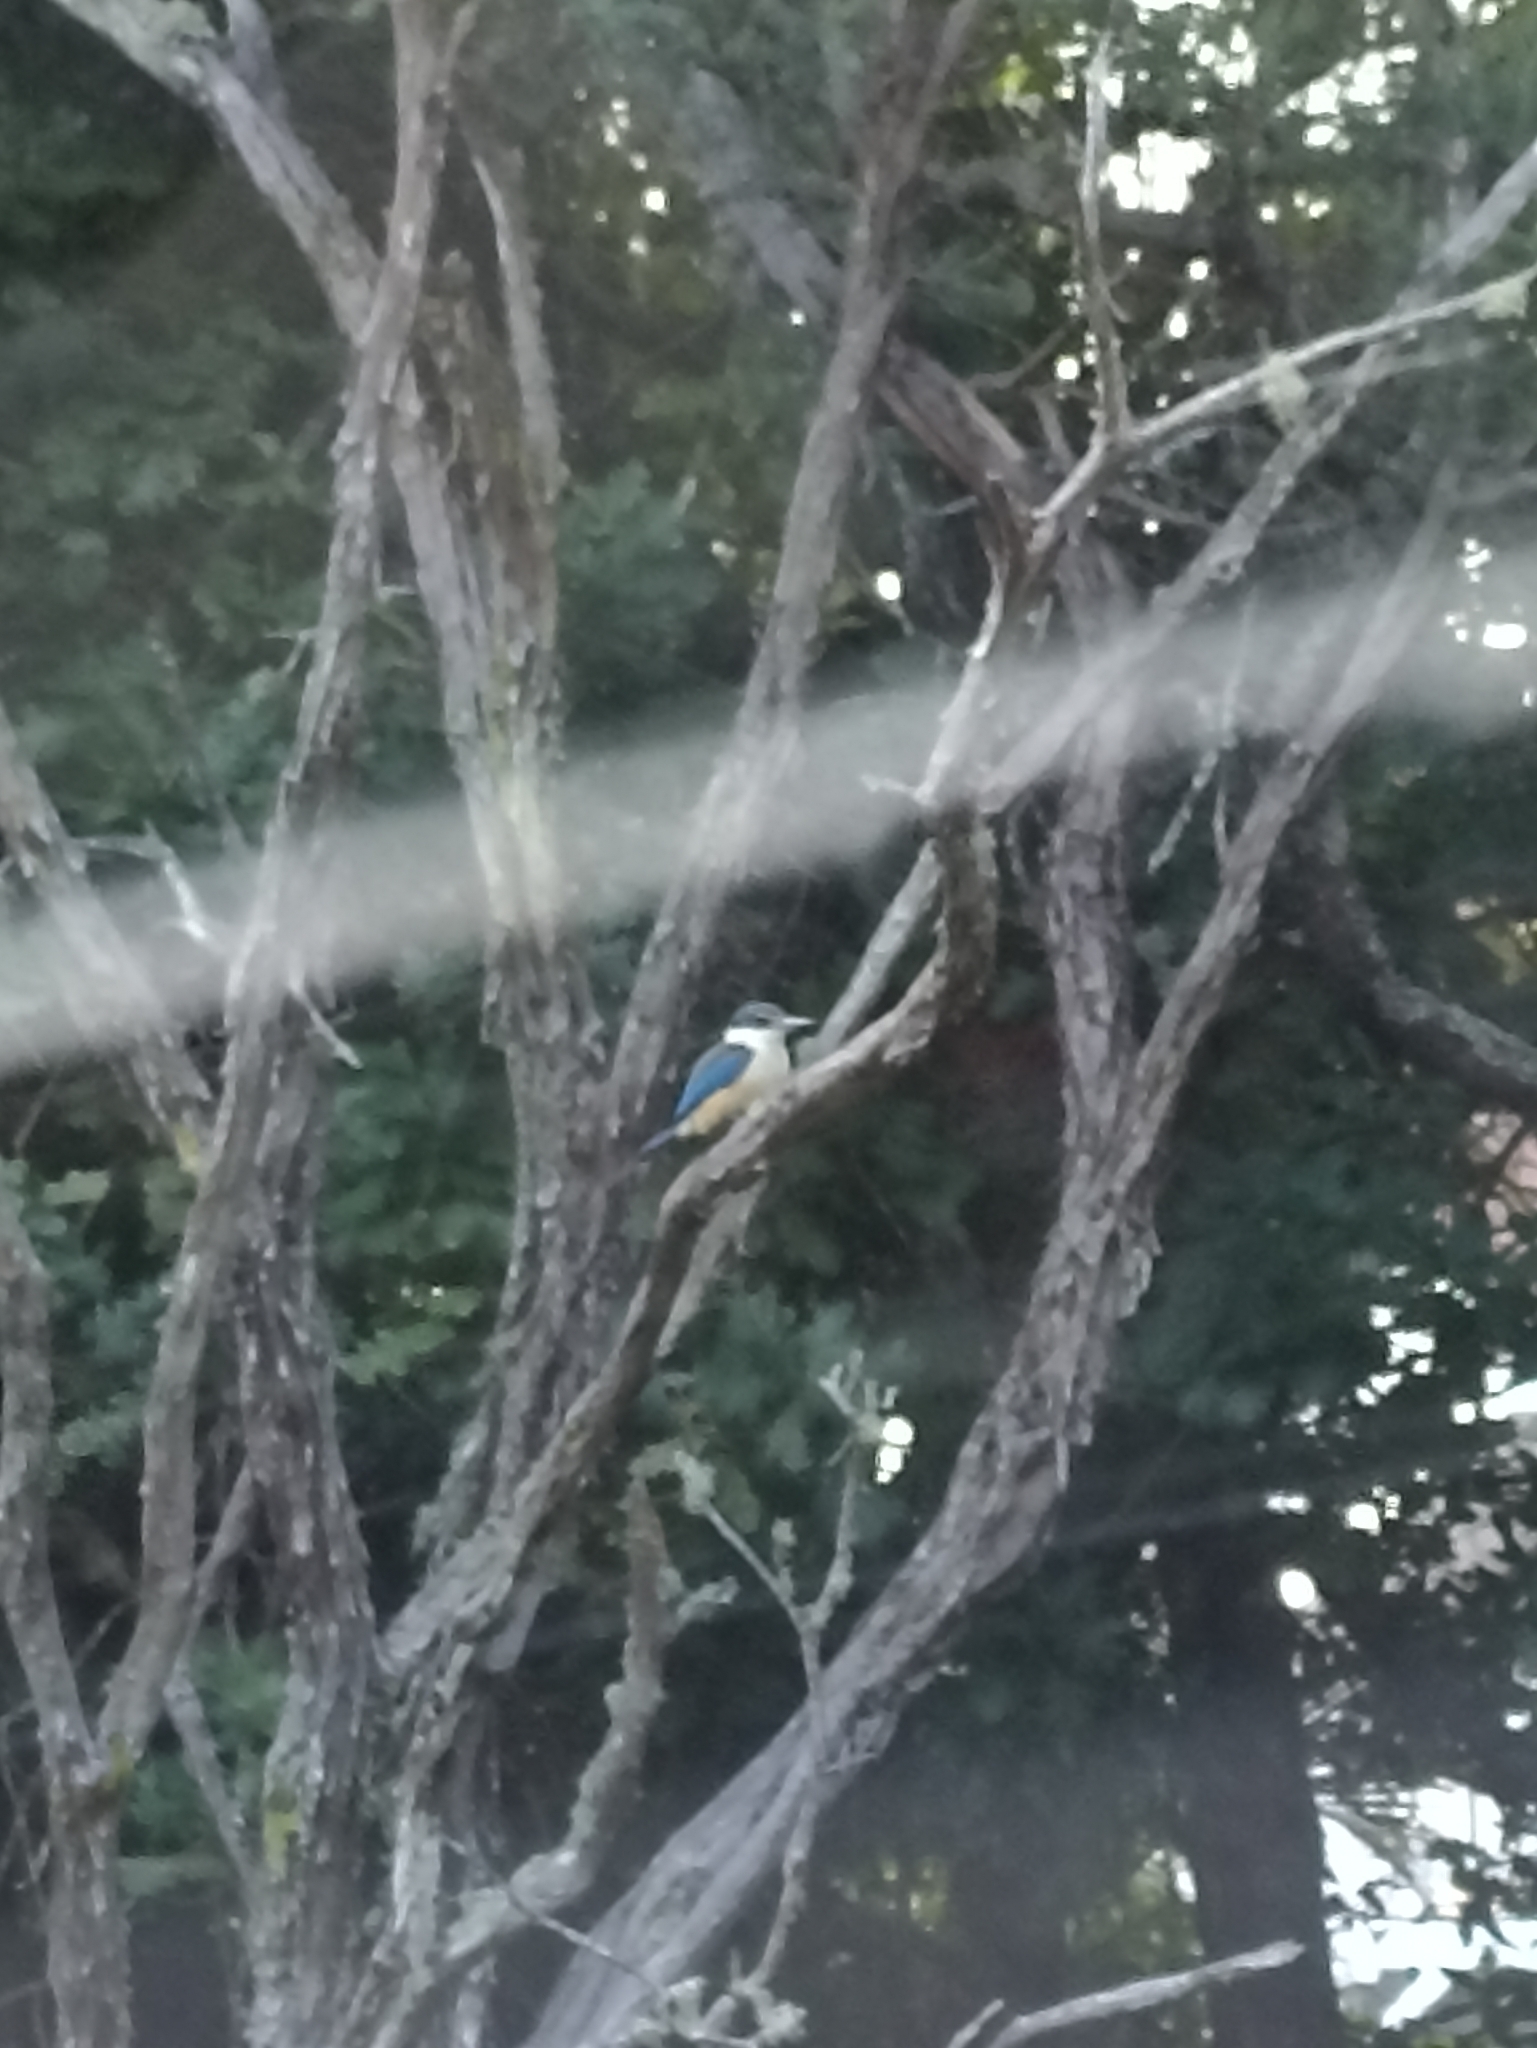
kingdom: Animalia
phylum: Chordata
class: Aves
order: Coraciiformes
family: Alcedinidae
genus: Todiramphus
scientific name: Todiramphus sanctus
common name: Sacred kingfisher
